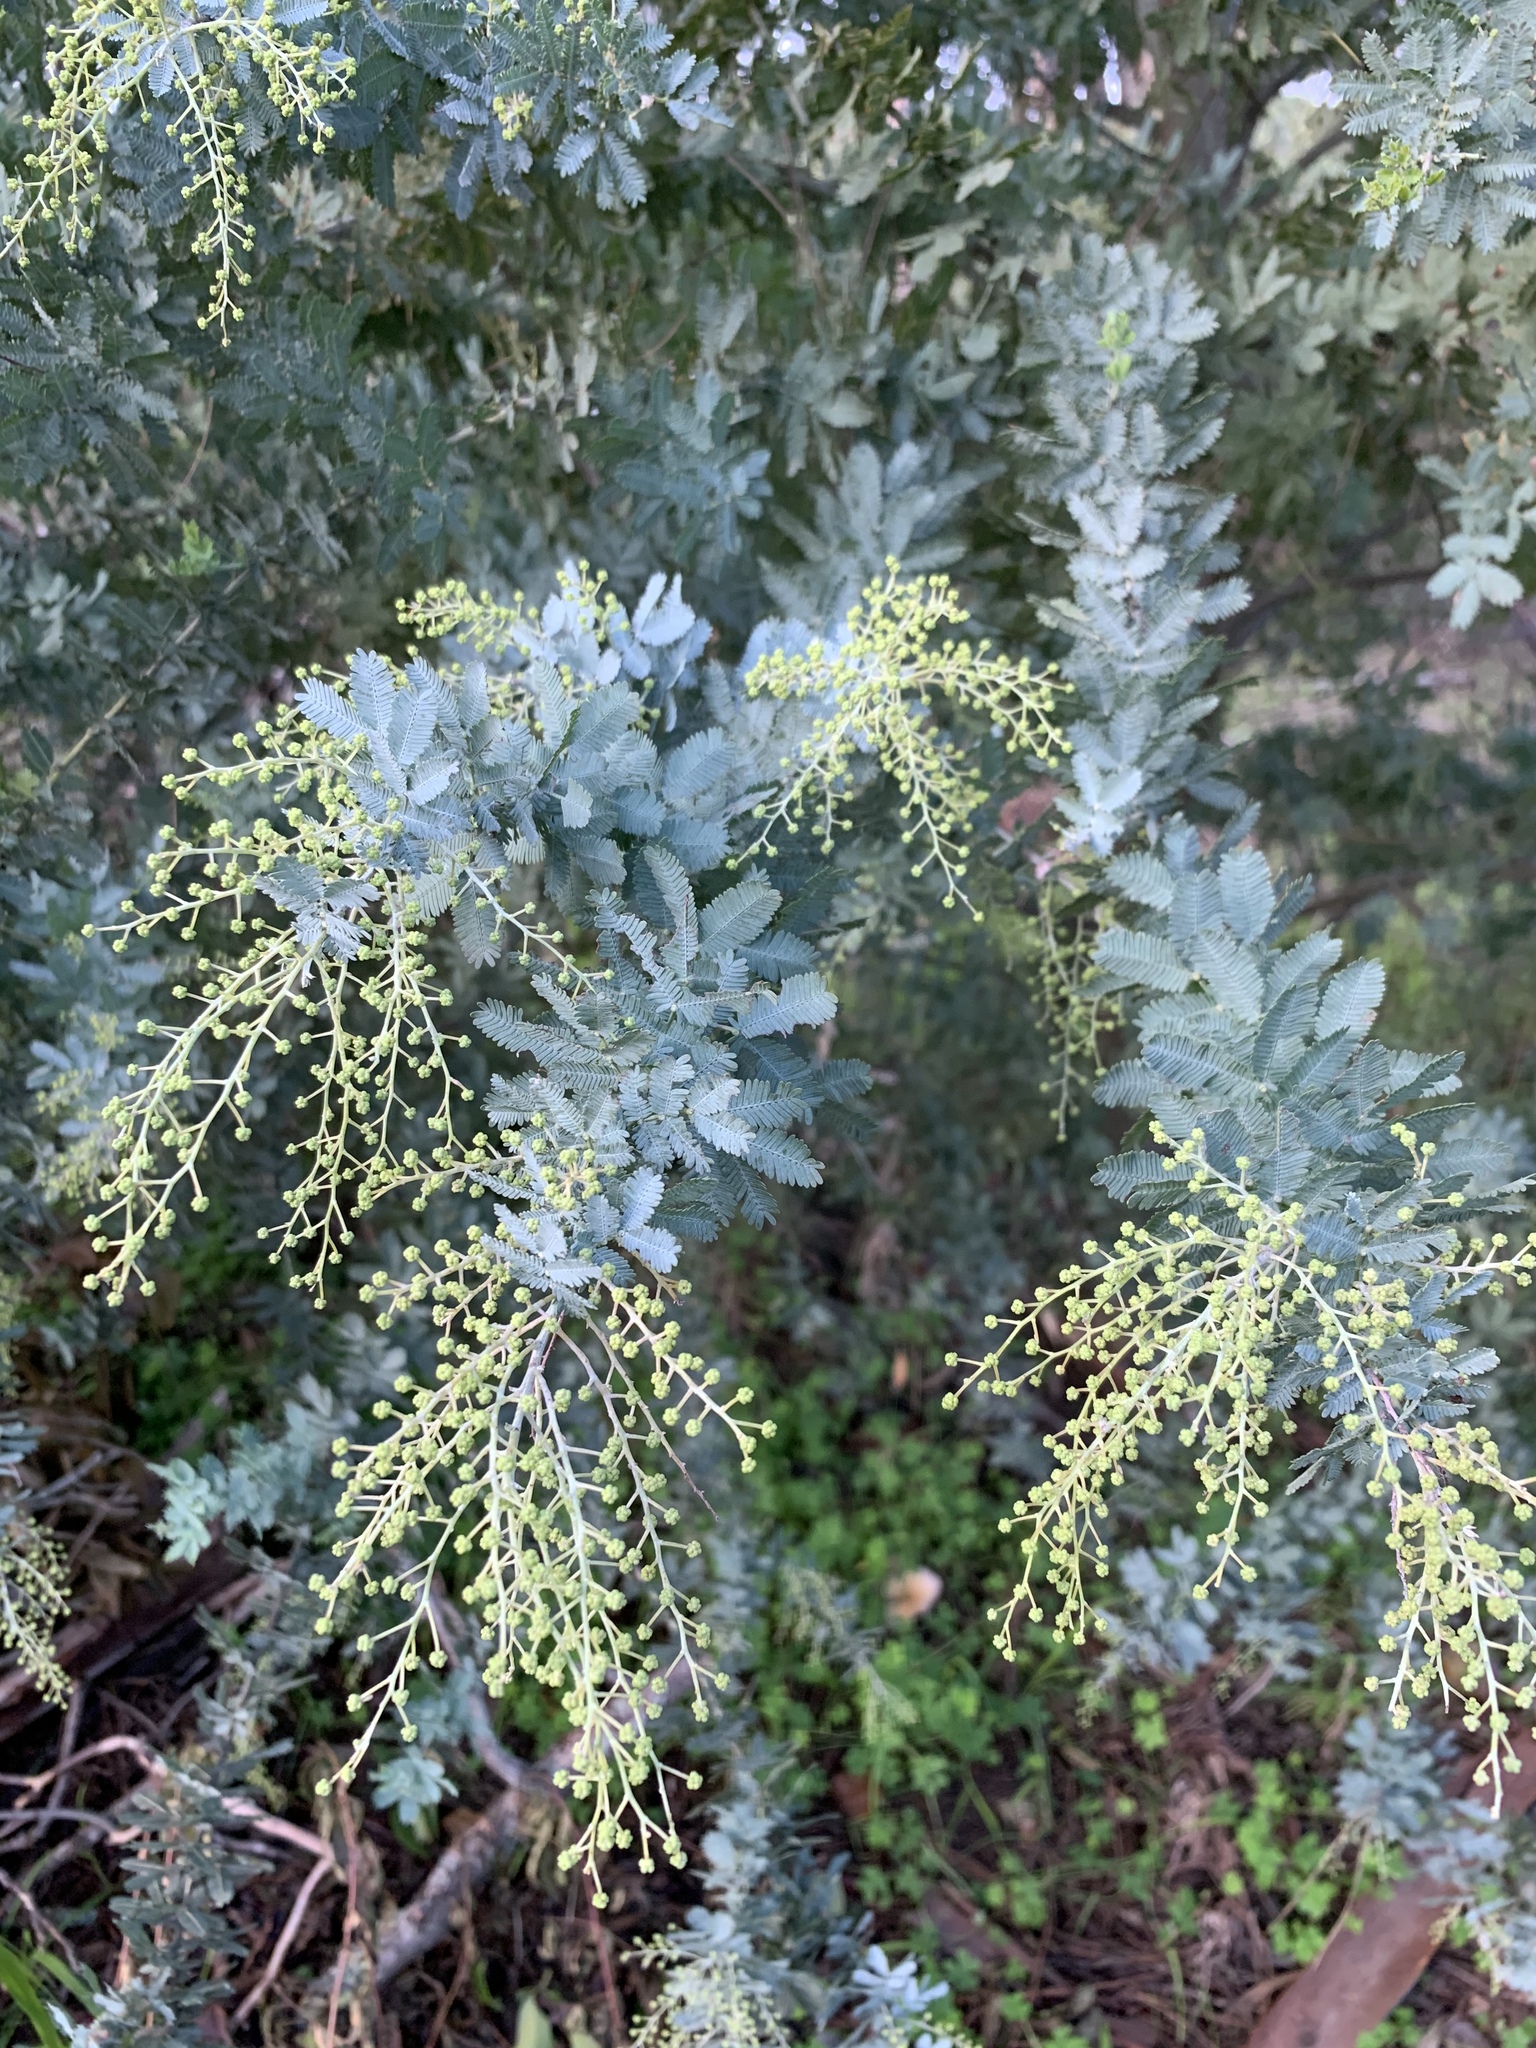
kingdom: Plantae
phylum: Tracheophyta
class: Magnoliopsida
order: Fabales
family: Fabaceae
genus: Acacia
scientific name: Acacia baileyana
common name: Cootamundra wattle
